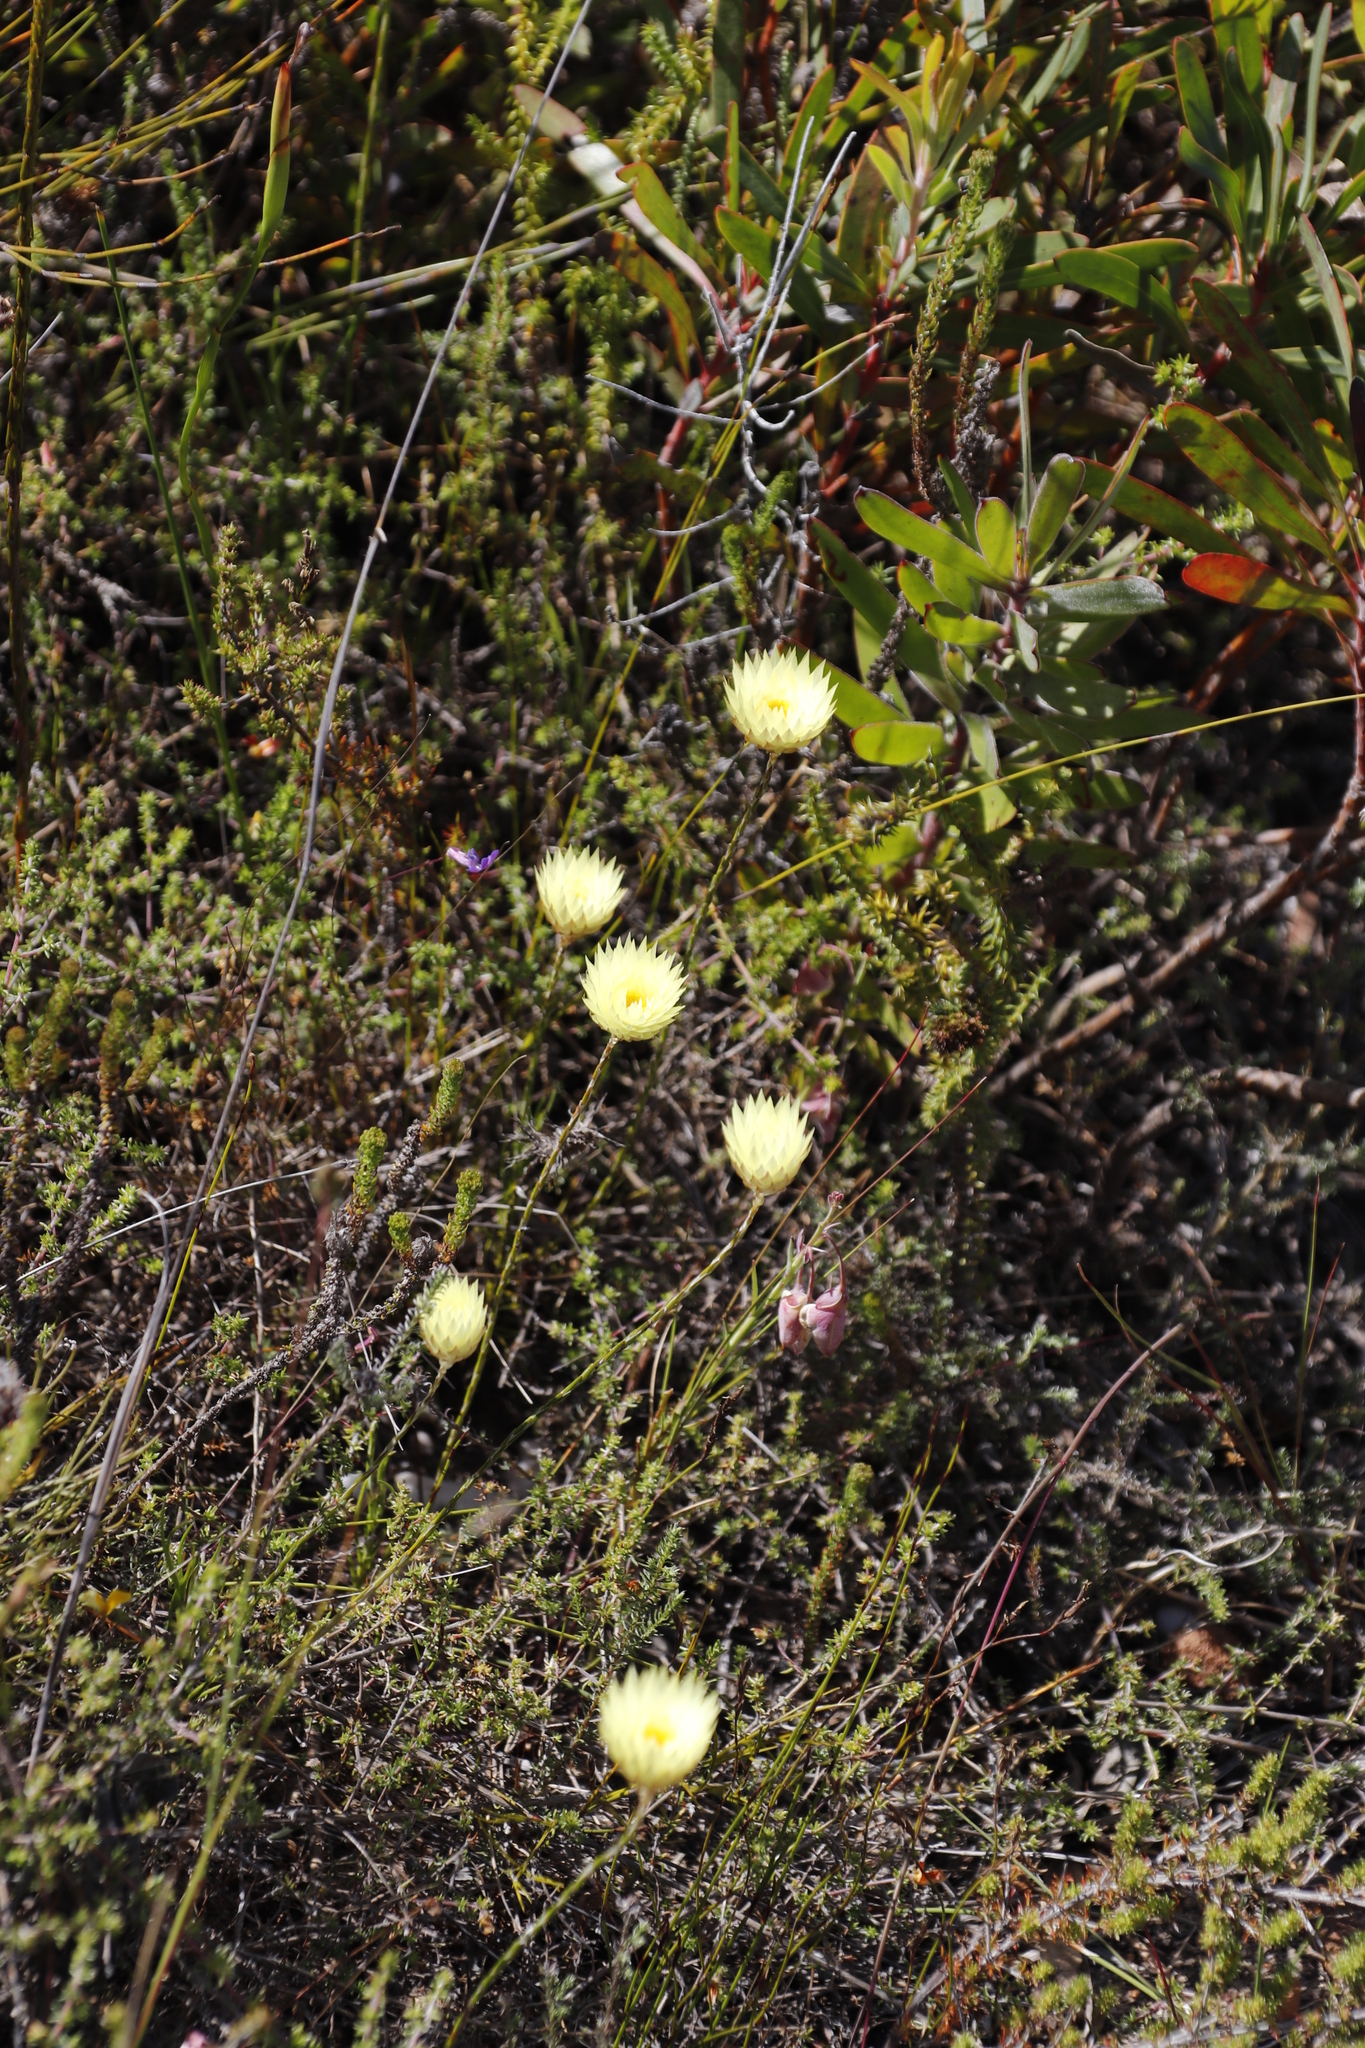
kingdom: Plantae
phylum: Tracheophyta
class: Magnoliopsida
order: Asterales
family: Asteraceae
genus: Edmondia
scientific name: Edmondia sesamoides
